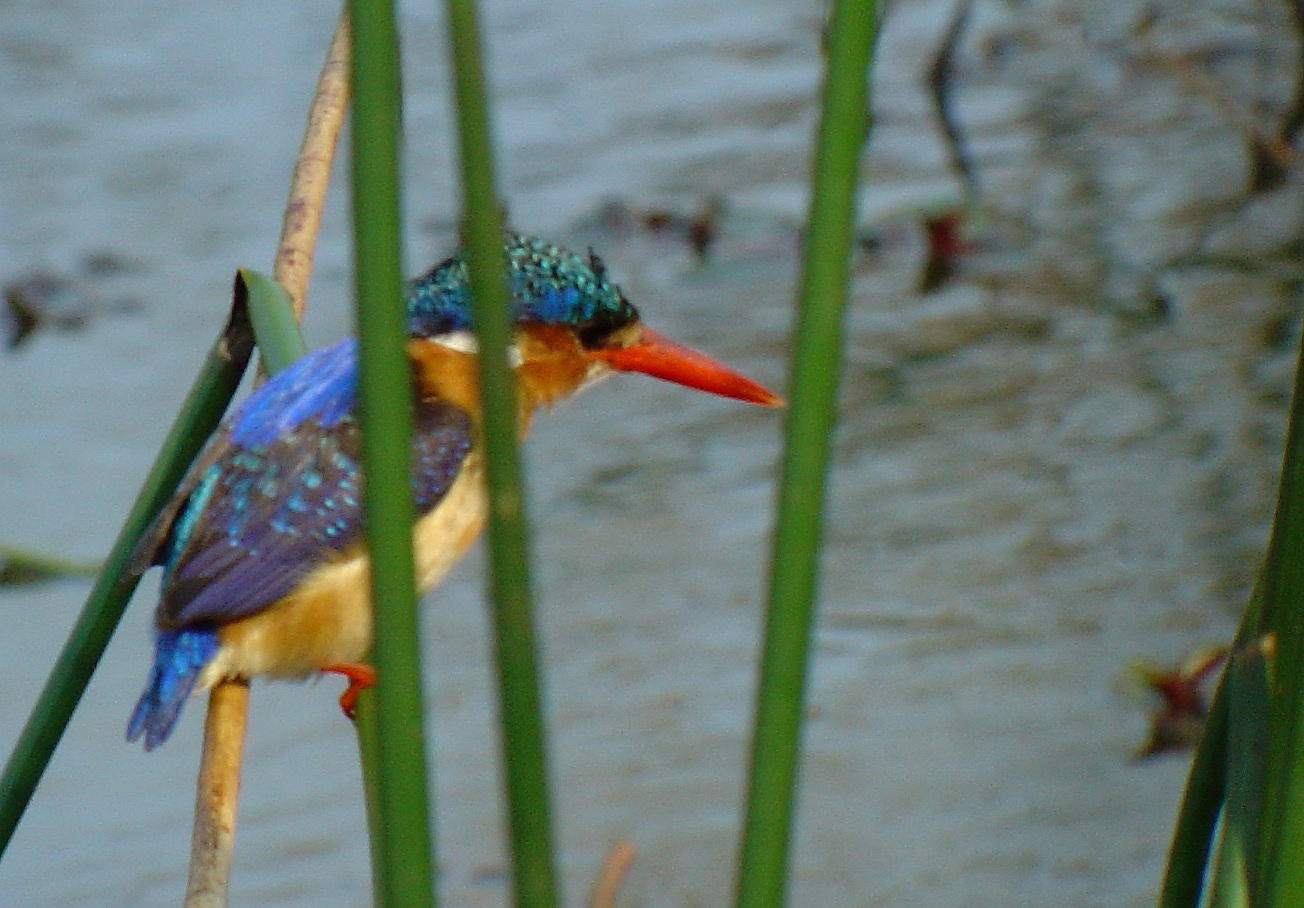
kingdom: Animalia
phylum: Chordata
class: Aves
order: Coraciiformes
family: Alcedinidae
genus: Corythornis
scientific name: Corythornis cristatus
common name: Malachite kingfisher
